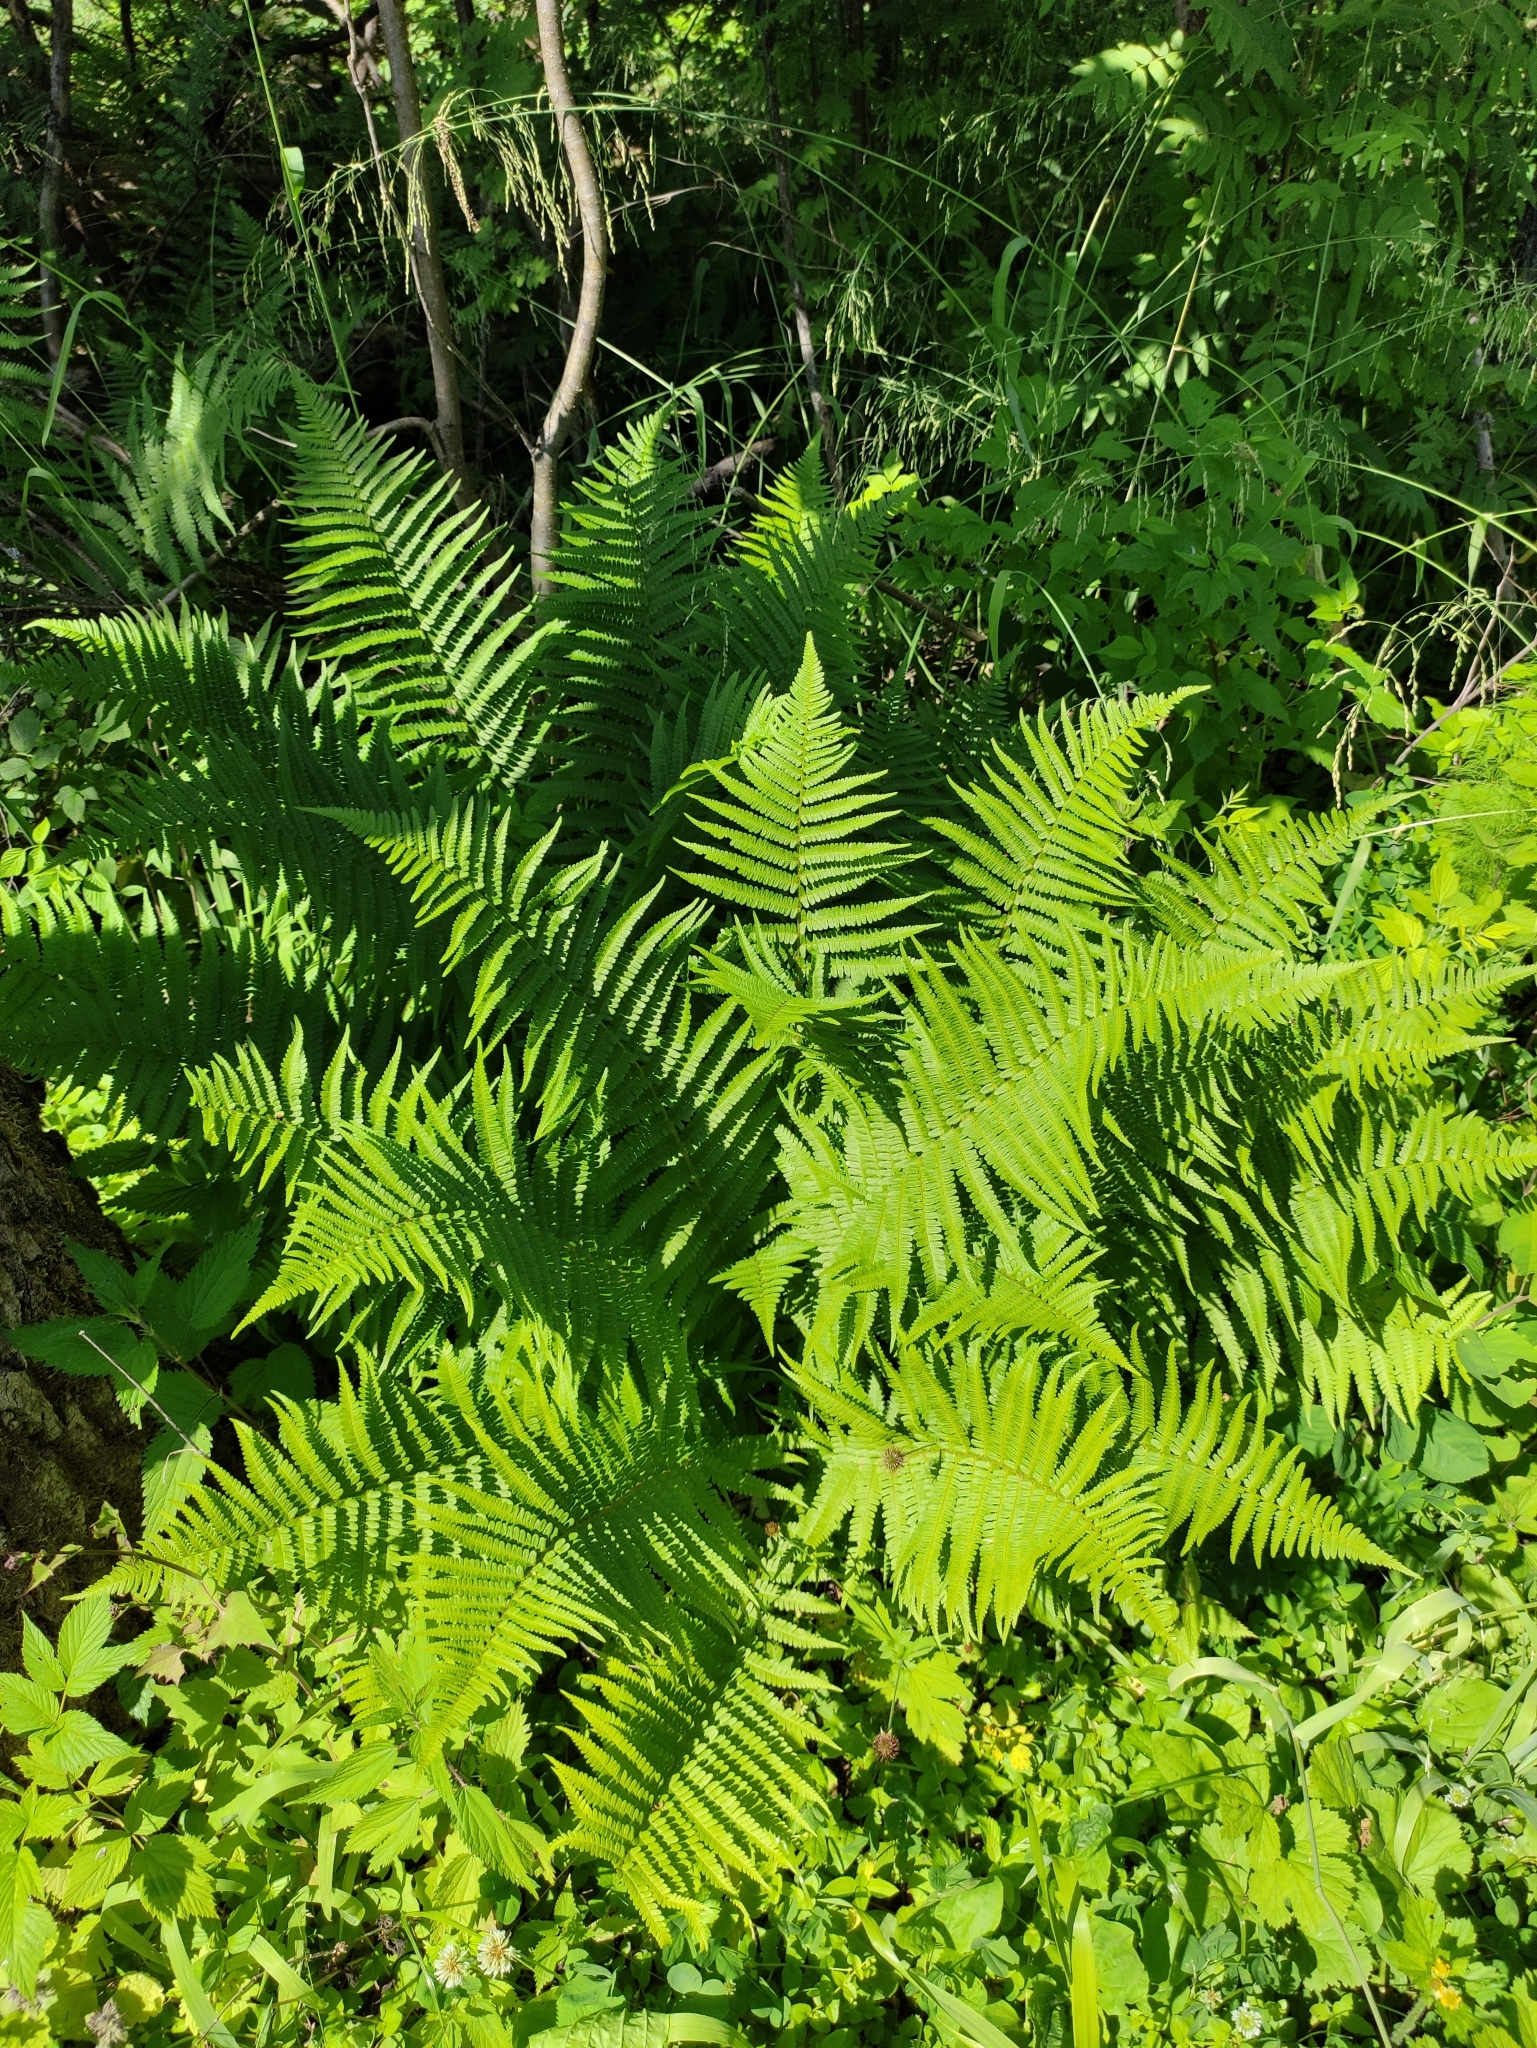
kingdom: Plantae
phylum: Tracheophyta
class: Polypodiopsida
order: Polypodiales
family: Dryopteridaceae
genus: Dryopteris
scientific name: Dryopteris filix-mas
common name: Male fern
